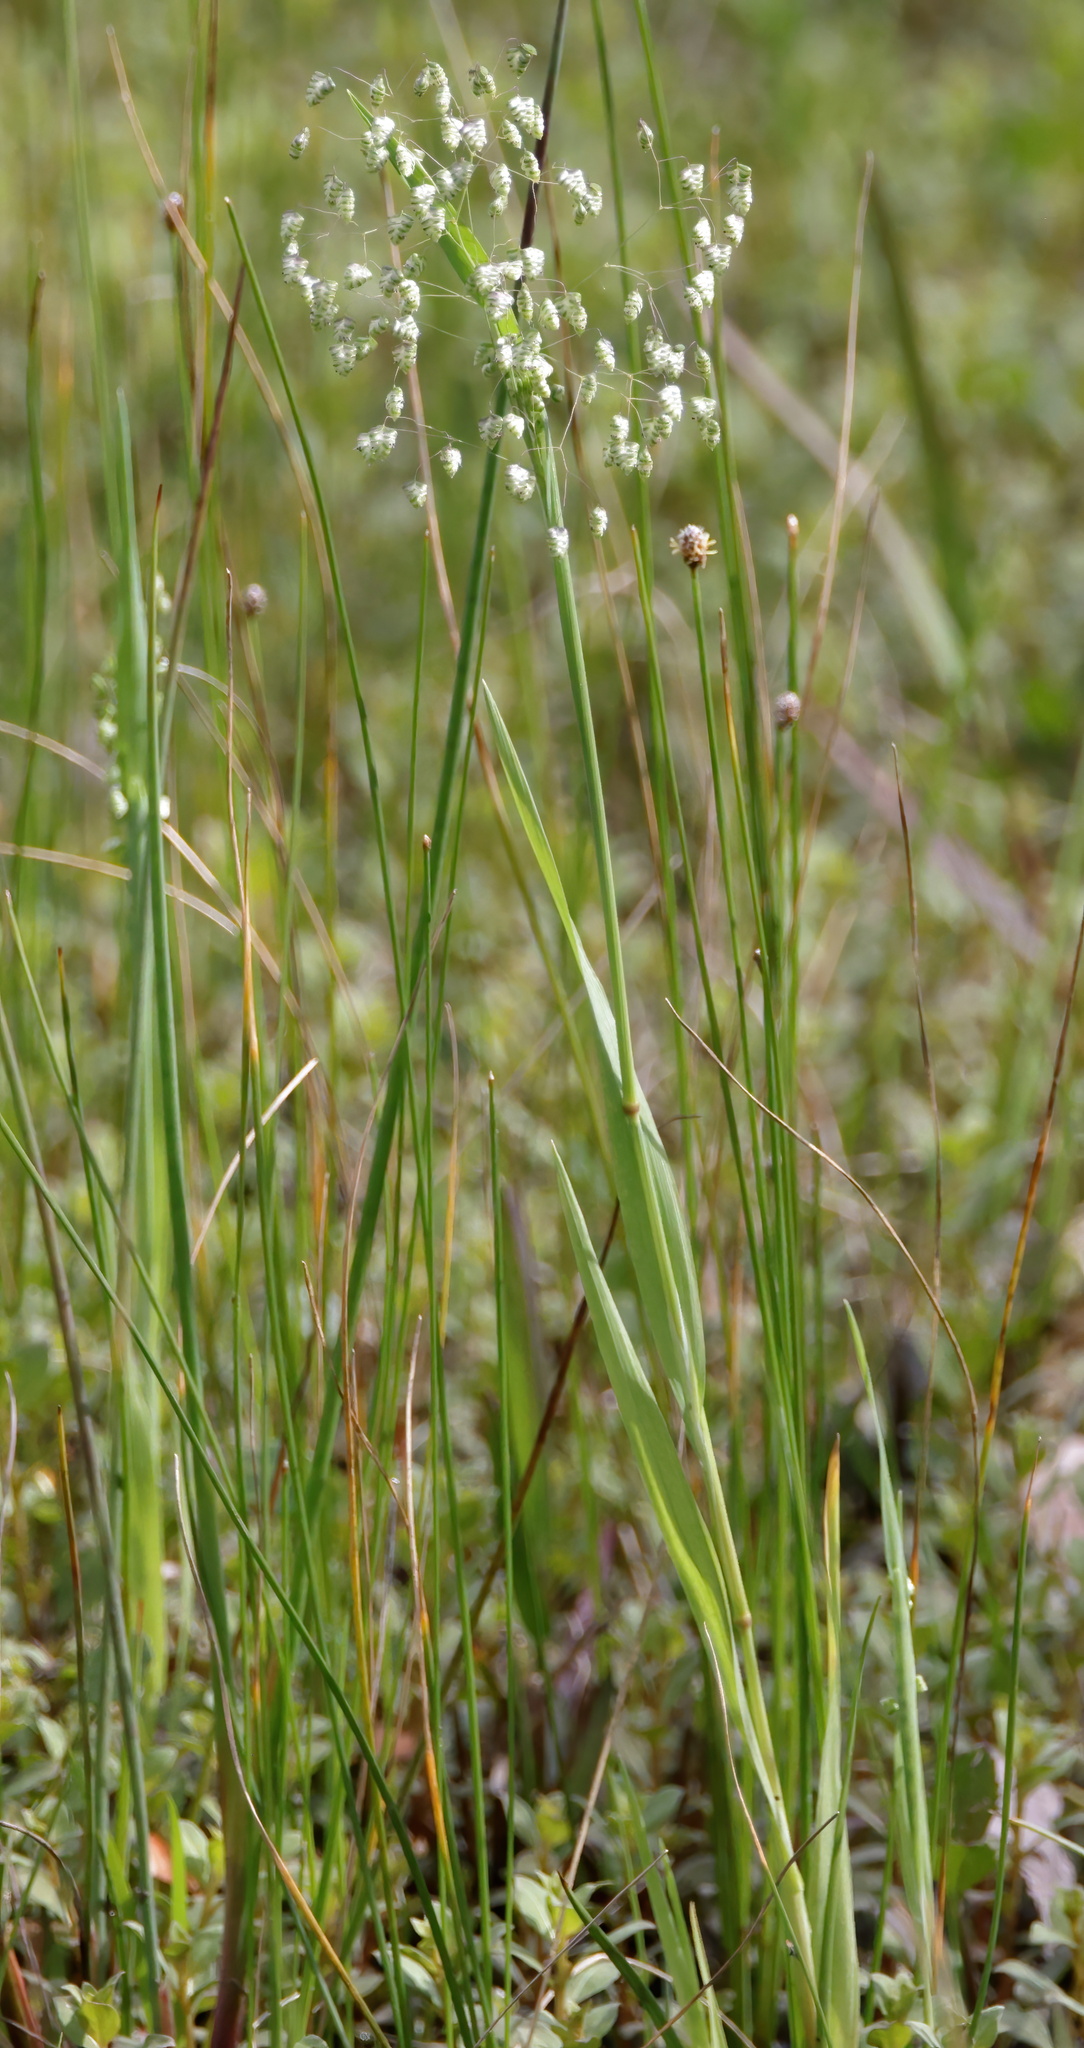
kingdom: Plantae
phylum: Tracheophyta
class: Liliopsida
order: Poales
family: Poaceae
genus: Briza
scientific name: Briza minor
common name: Lesser quaking-grass
